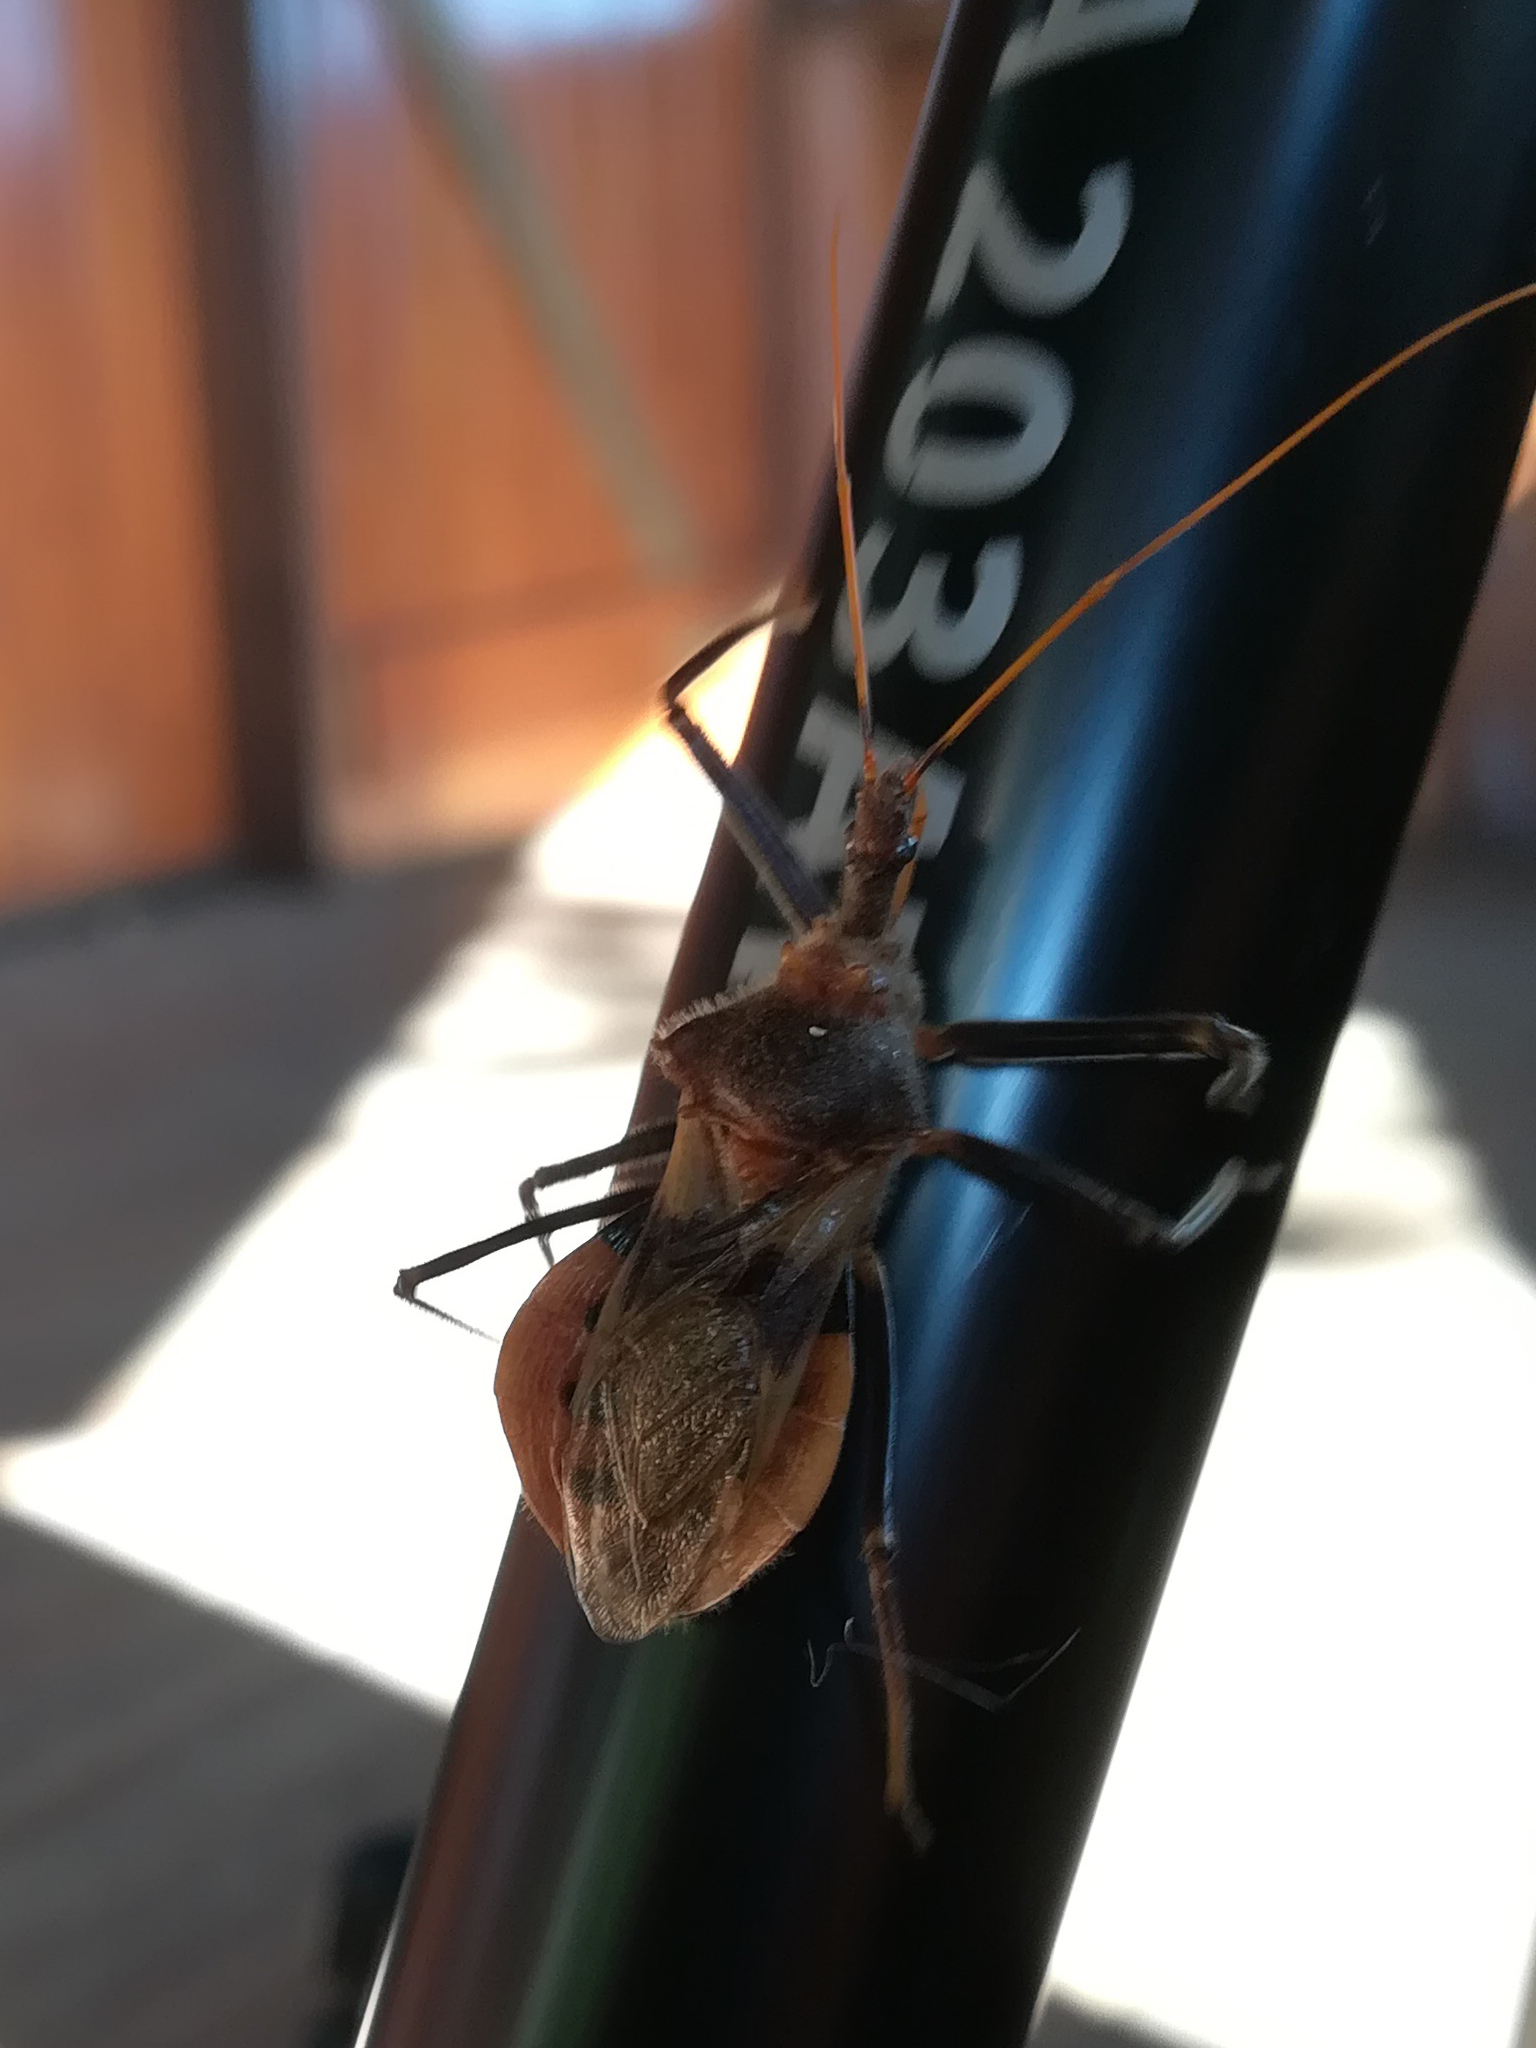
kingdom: Animalia
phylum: Arthropoda
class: Insecta
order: Hemiptera
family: Reduviidae
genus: Pristhesancus
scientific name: Pristhesancus chlamydatus
